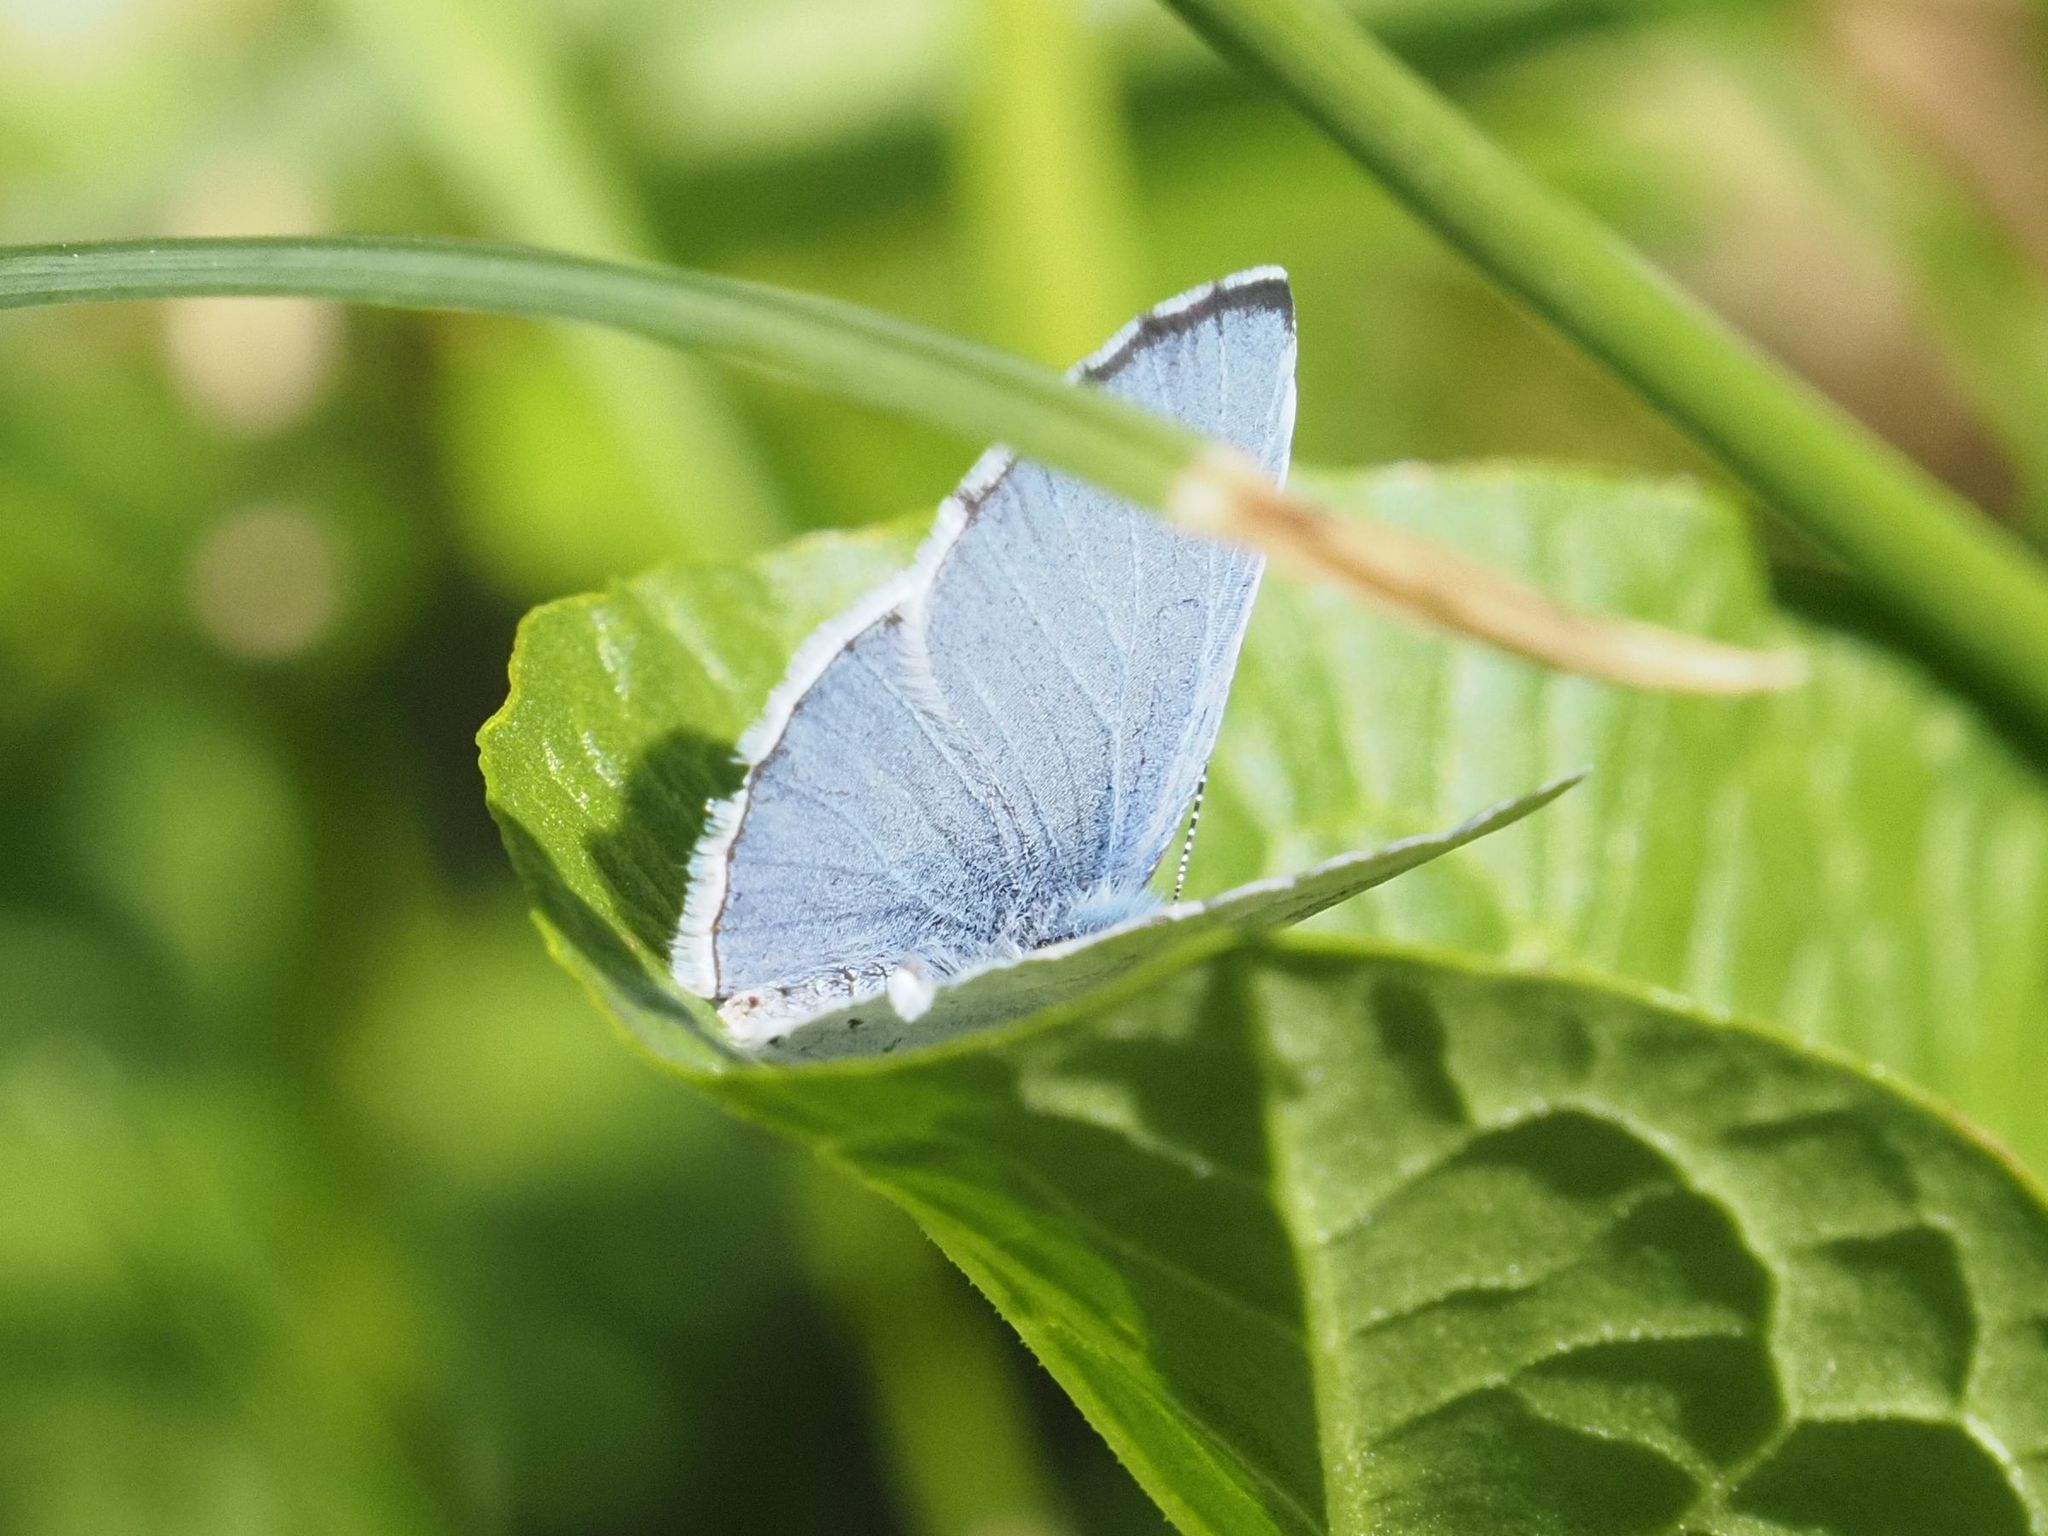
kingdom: Animalia
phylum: Arthropoda
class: Insecta
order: Lepidoptera
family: Lycaenidae
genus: Celastrina
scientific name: Celastrina argiolus
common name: Holly blue
